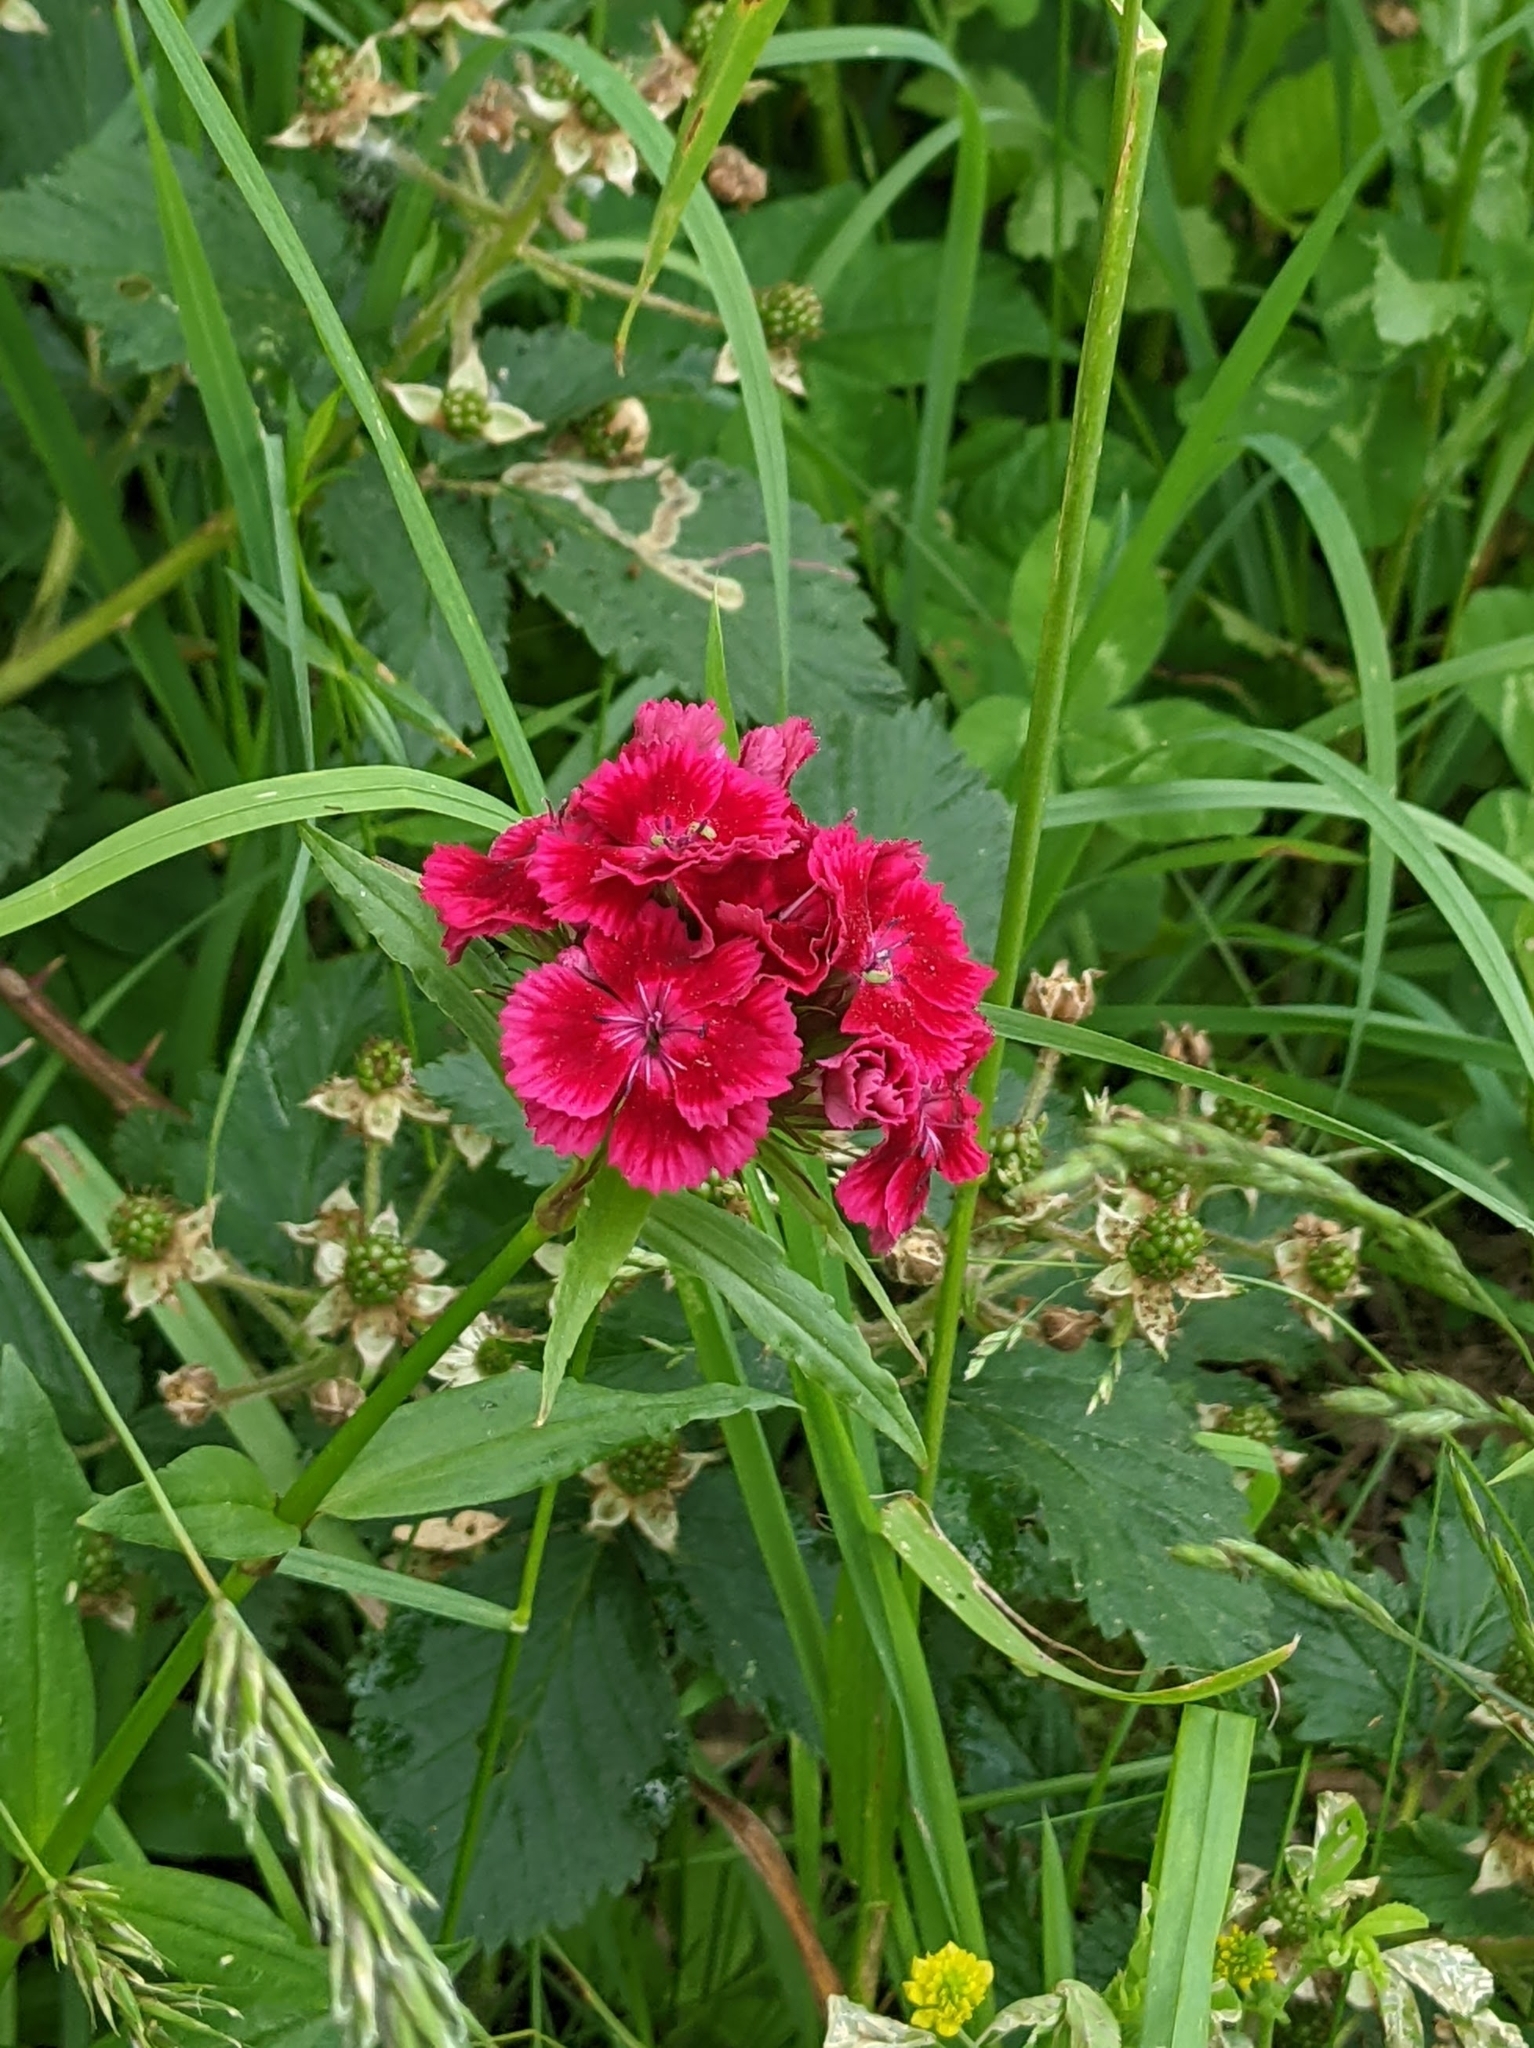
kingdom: Plantae
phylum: Tracheophyta
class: Magnoliopsida
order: Caryophyllales
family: Caryophyllaceae
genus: Dianthus
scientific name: Dianthus barbatus
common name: Sweet-william
